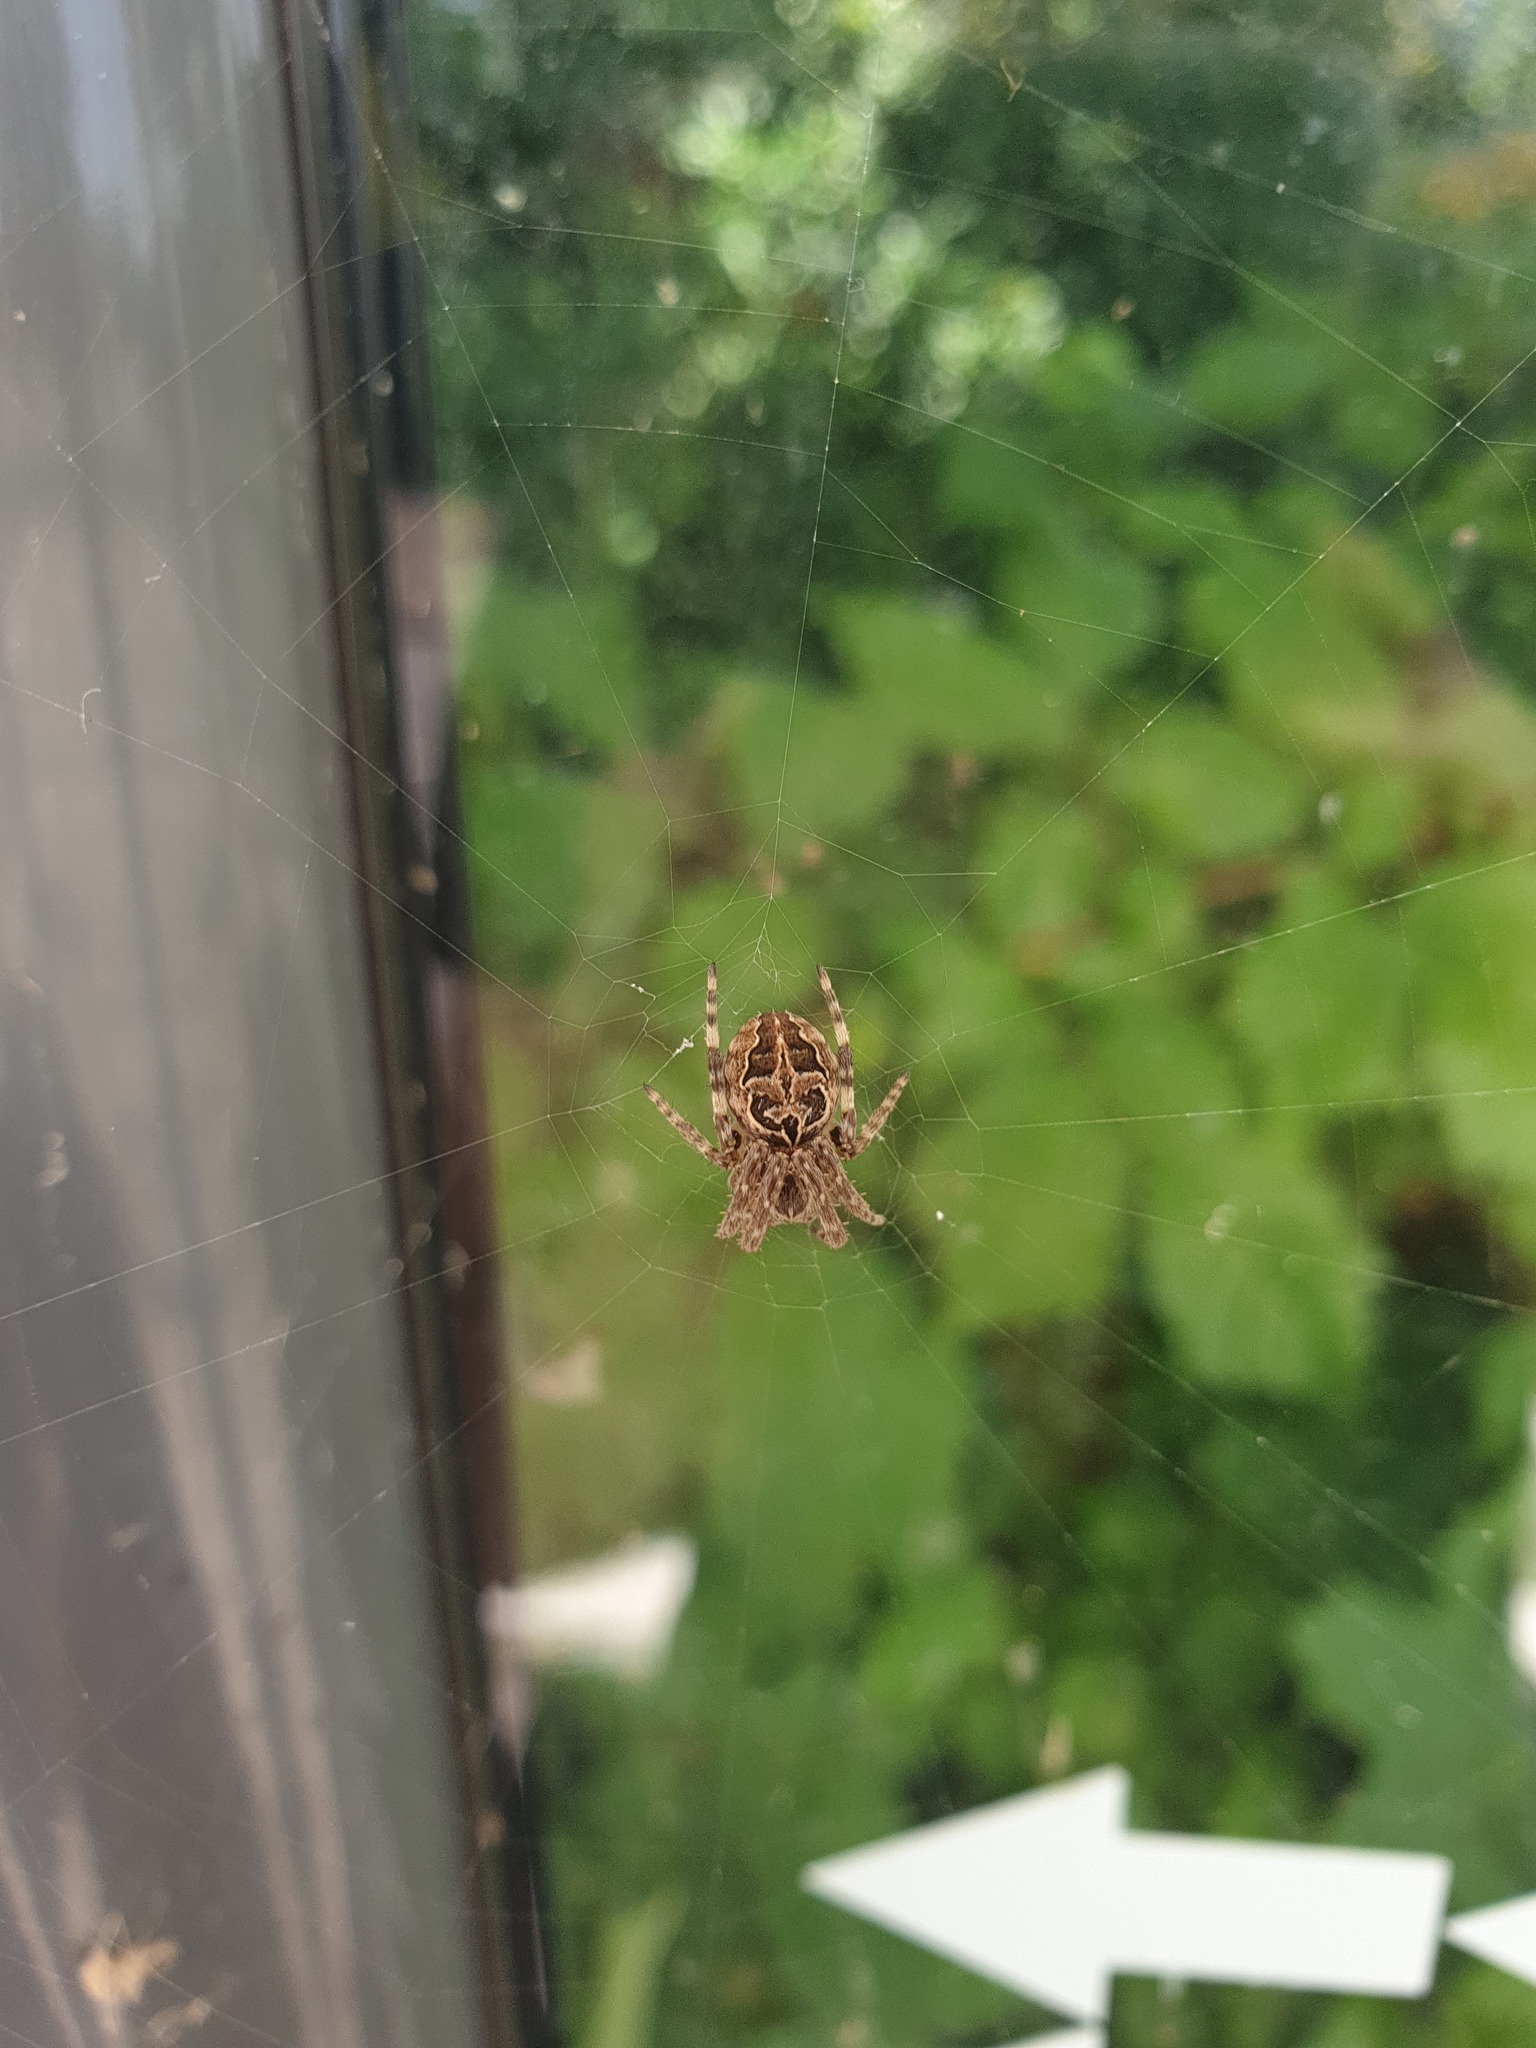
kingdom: Animalia
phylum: Arthropoda
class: Arachnida
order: Araneae
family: Araneidae
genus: Larinioides
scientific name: Larinioides sclopetarius
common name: Bridge orbweaver
